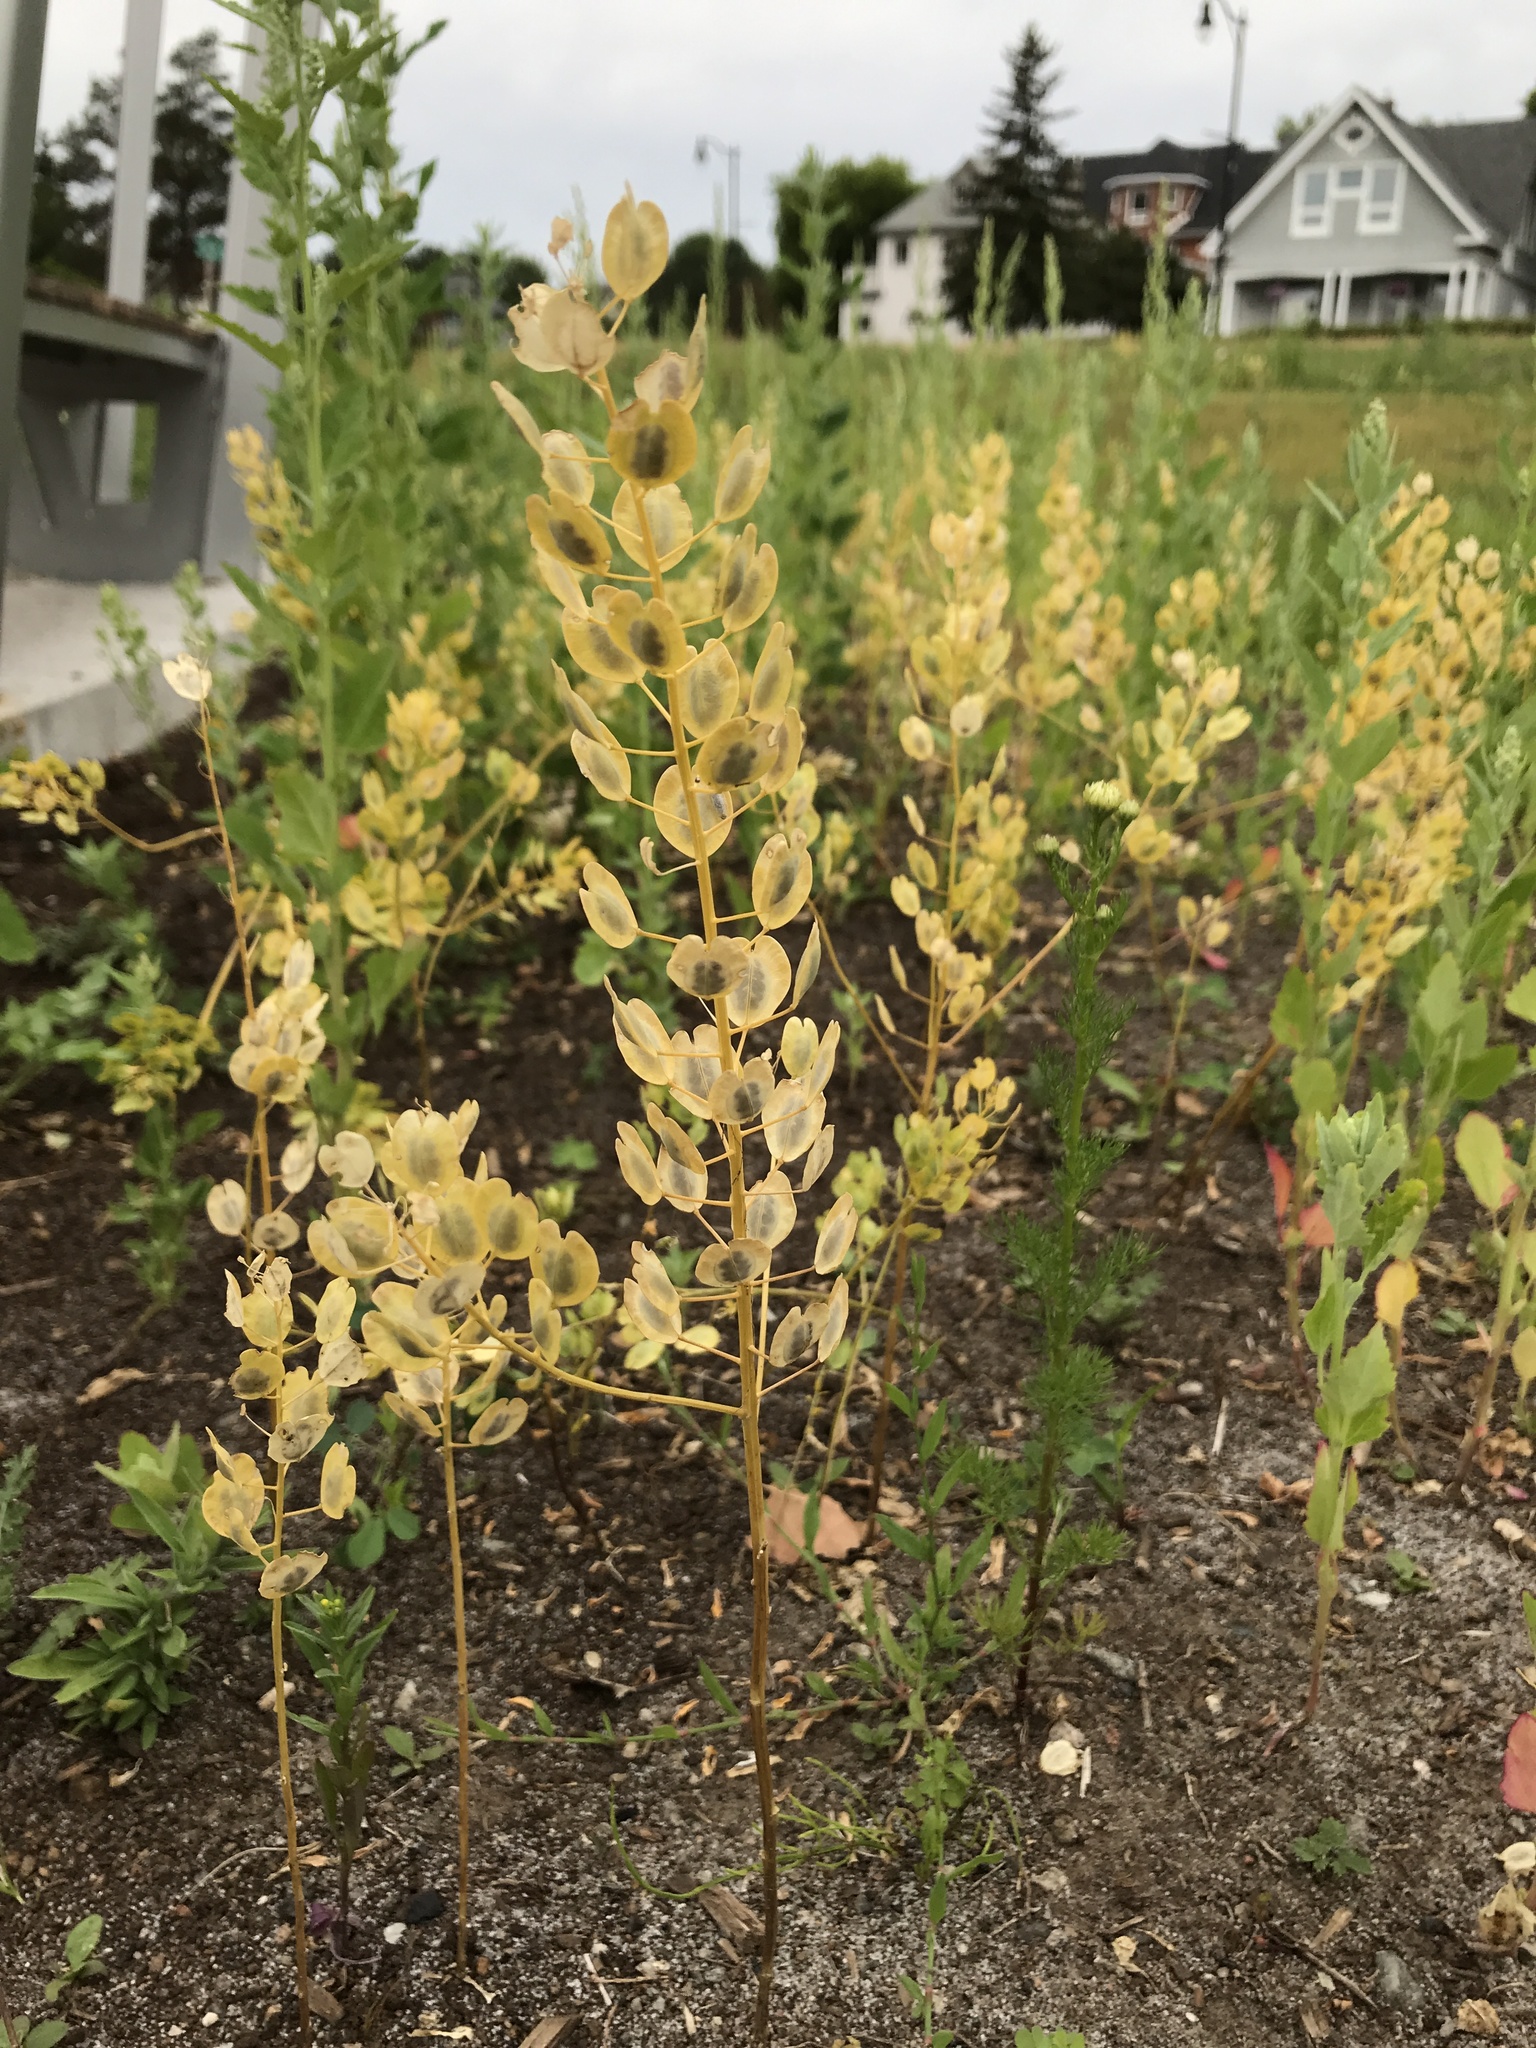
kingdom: Plantae
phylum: Tracheophyta
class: Magnoliopsida
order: Brassicales
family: Brassicaceae
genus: Thlaspi
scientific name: Thlaspi arvense
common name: Field pennycress
